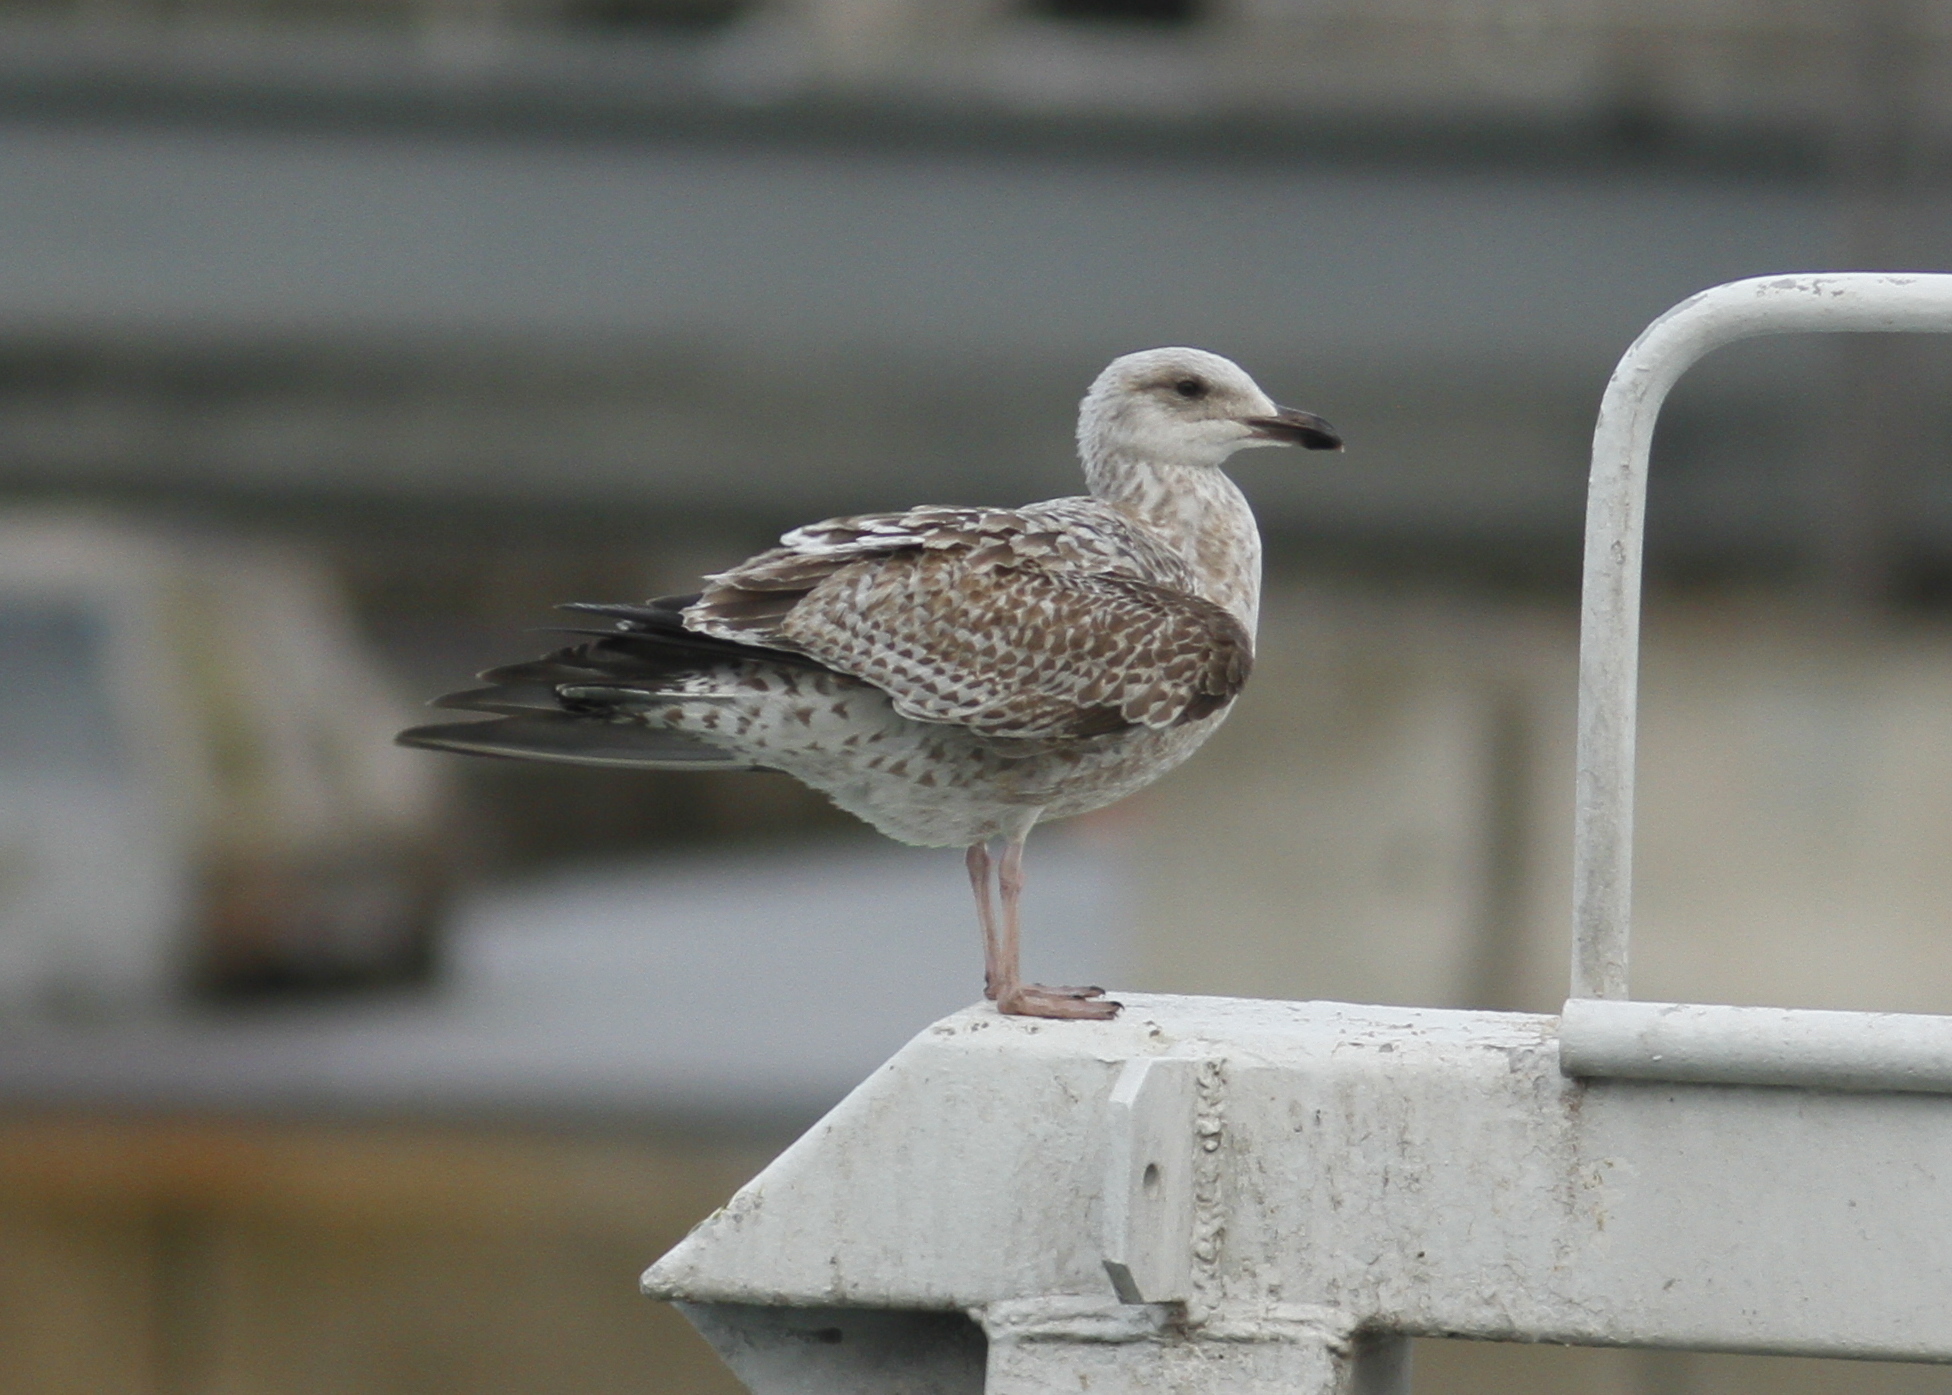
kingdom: Animalia
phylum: Chordata
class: Aves
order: Charadriiformes
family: Laridae
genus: Larus
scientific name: Larus argentatus
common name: Herring gull
